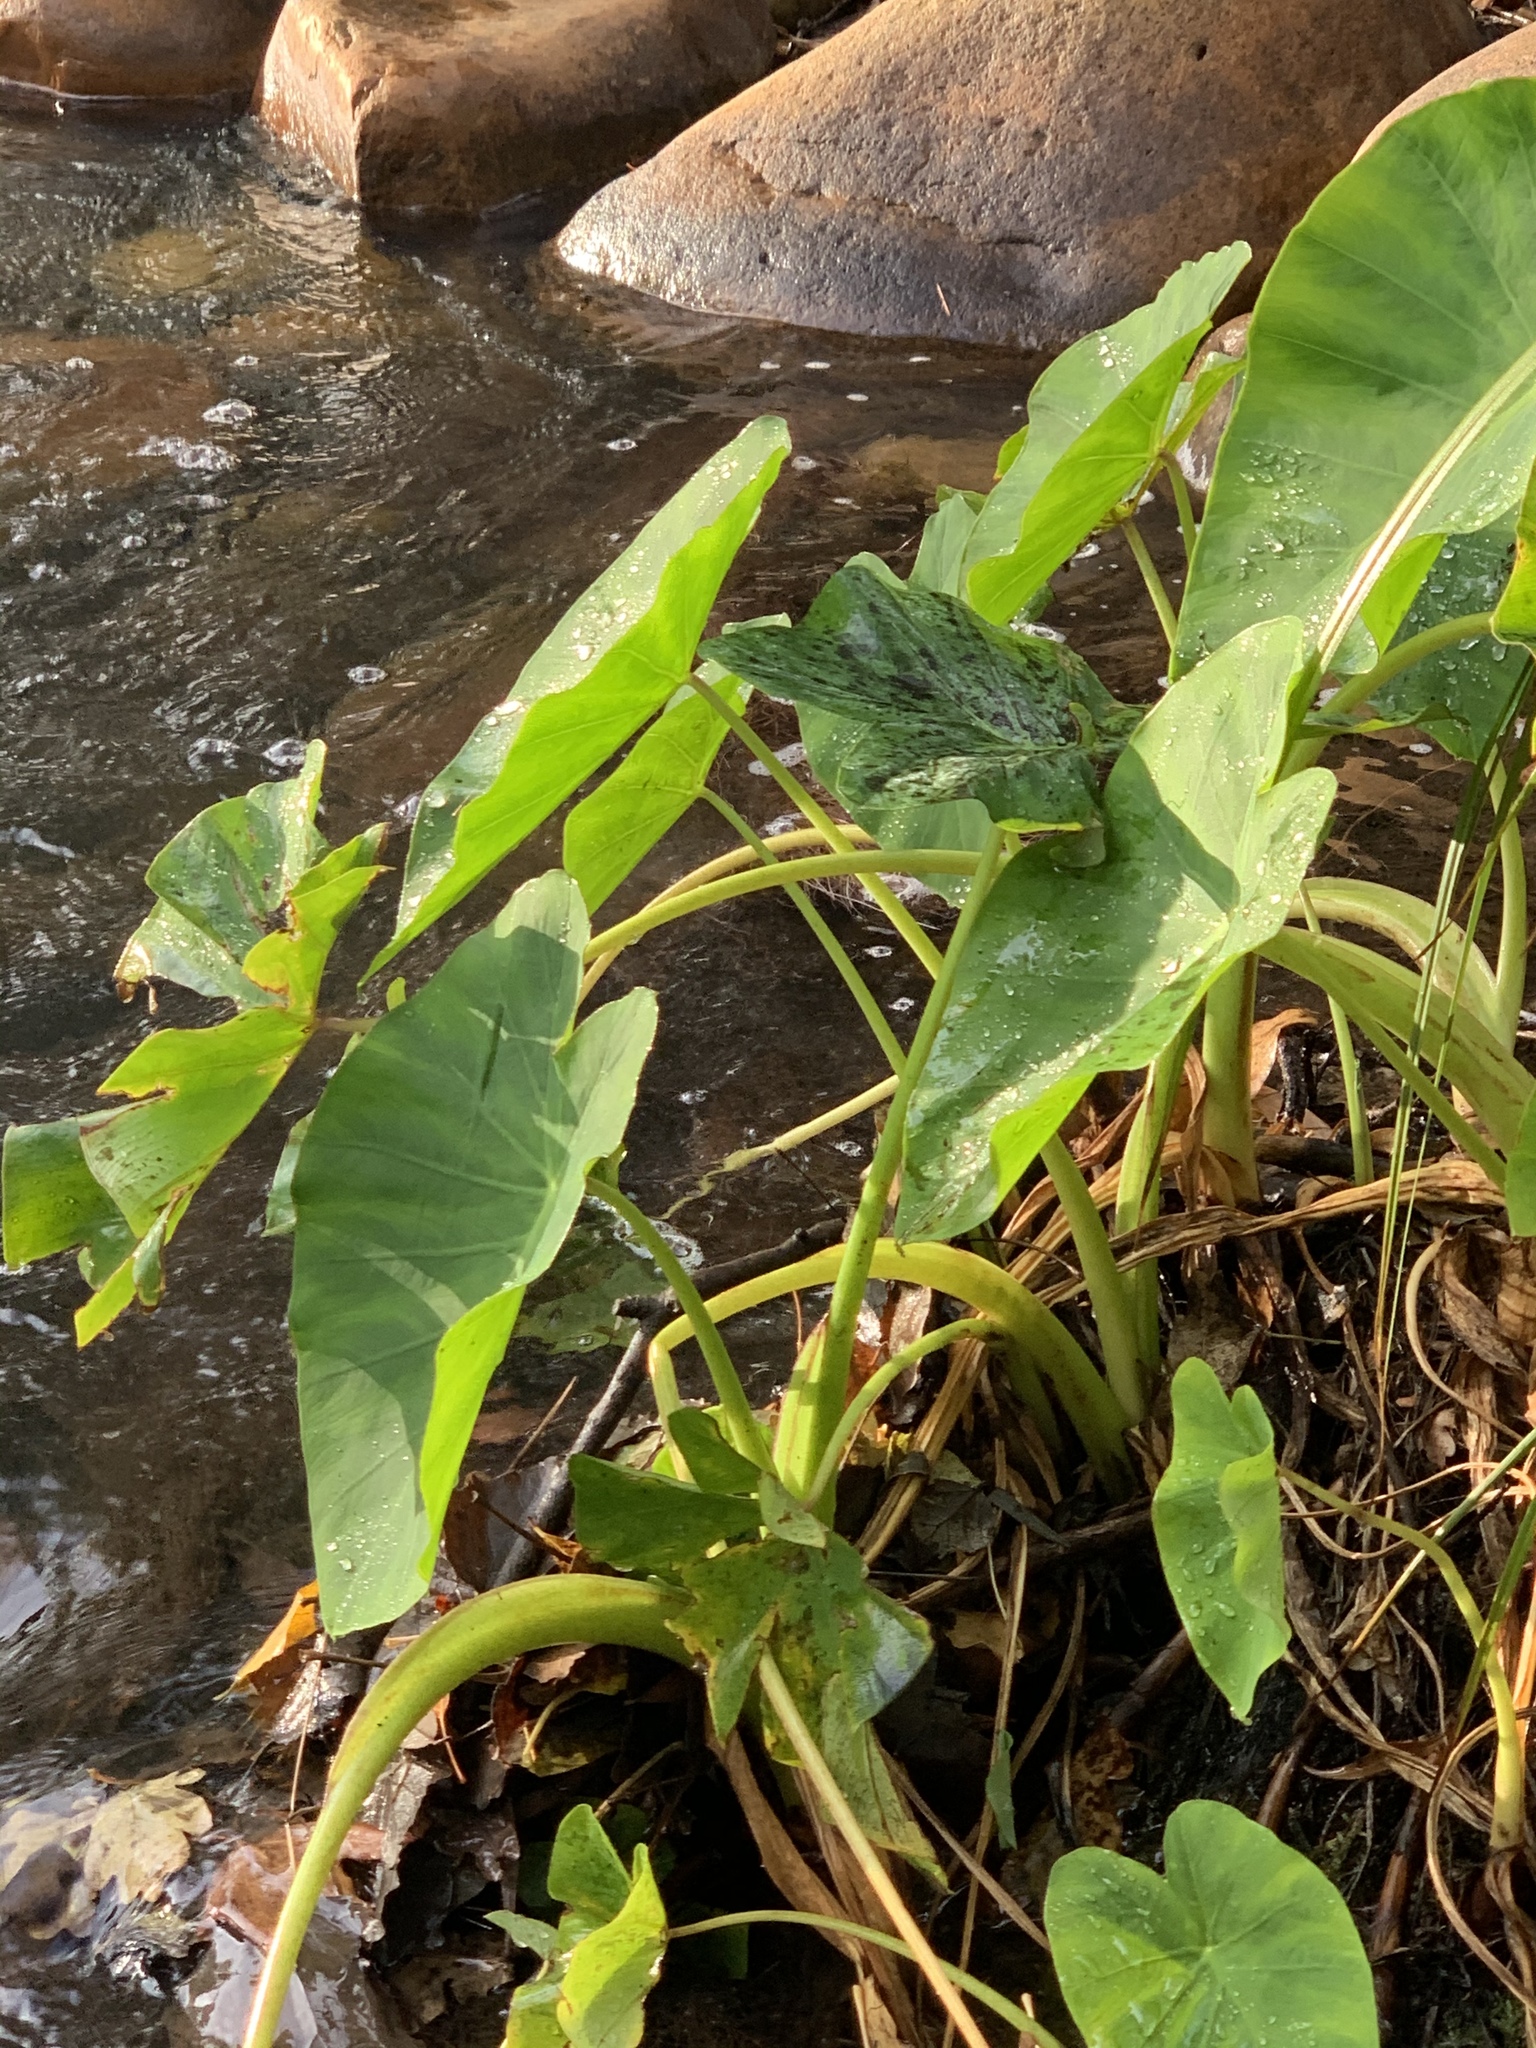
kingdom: Plantae
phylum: Tracheophyta
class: Liliopsida
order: Alismatales
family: Araceae
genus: Colocasia
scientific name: Colocasia esculenta
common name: Taro
